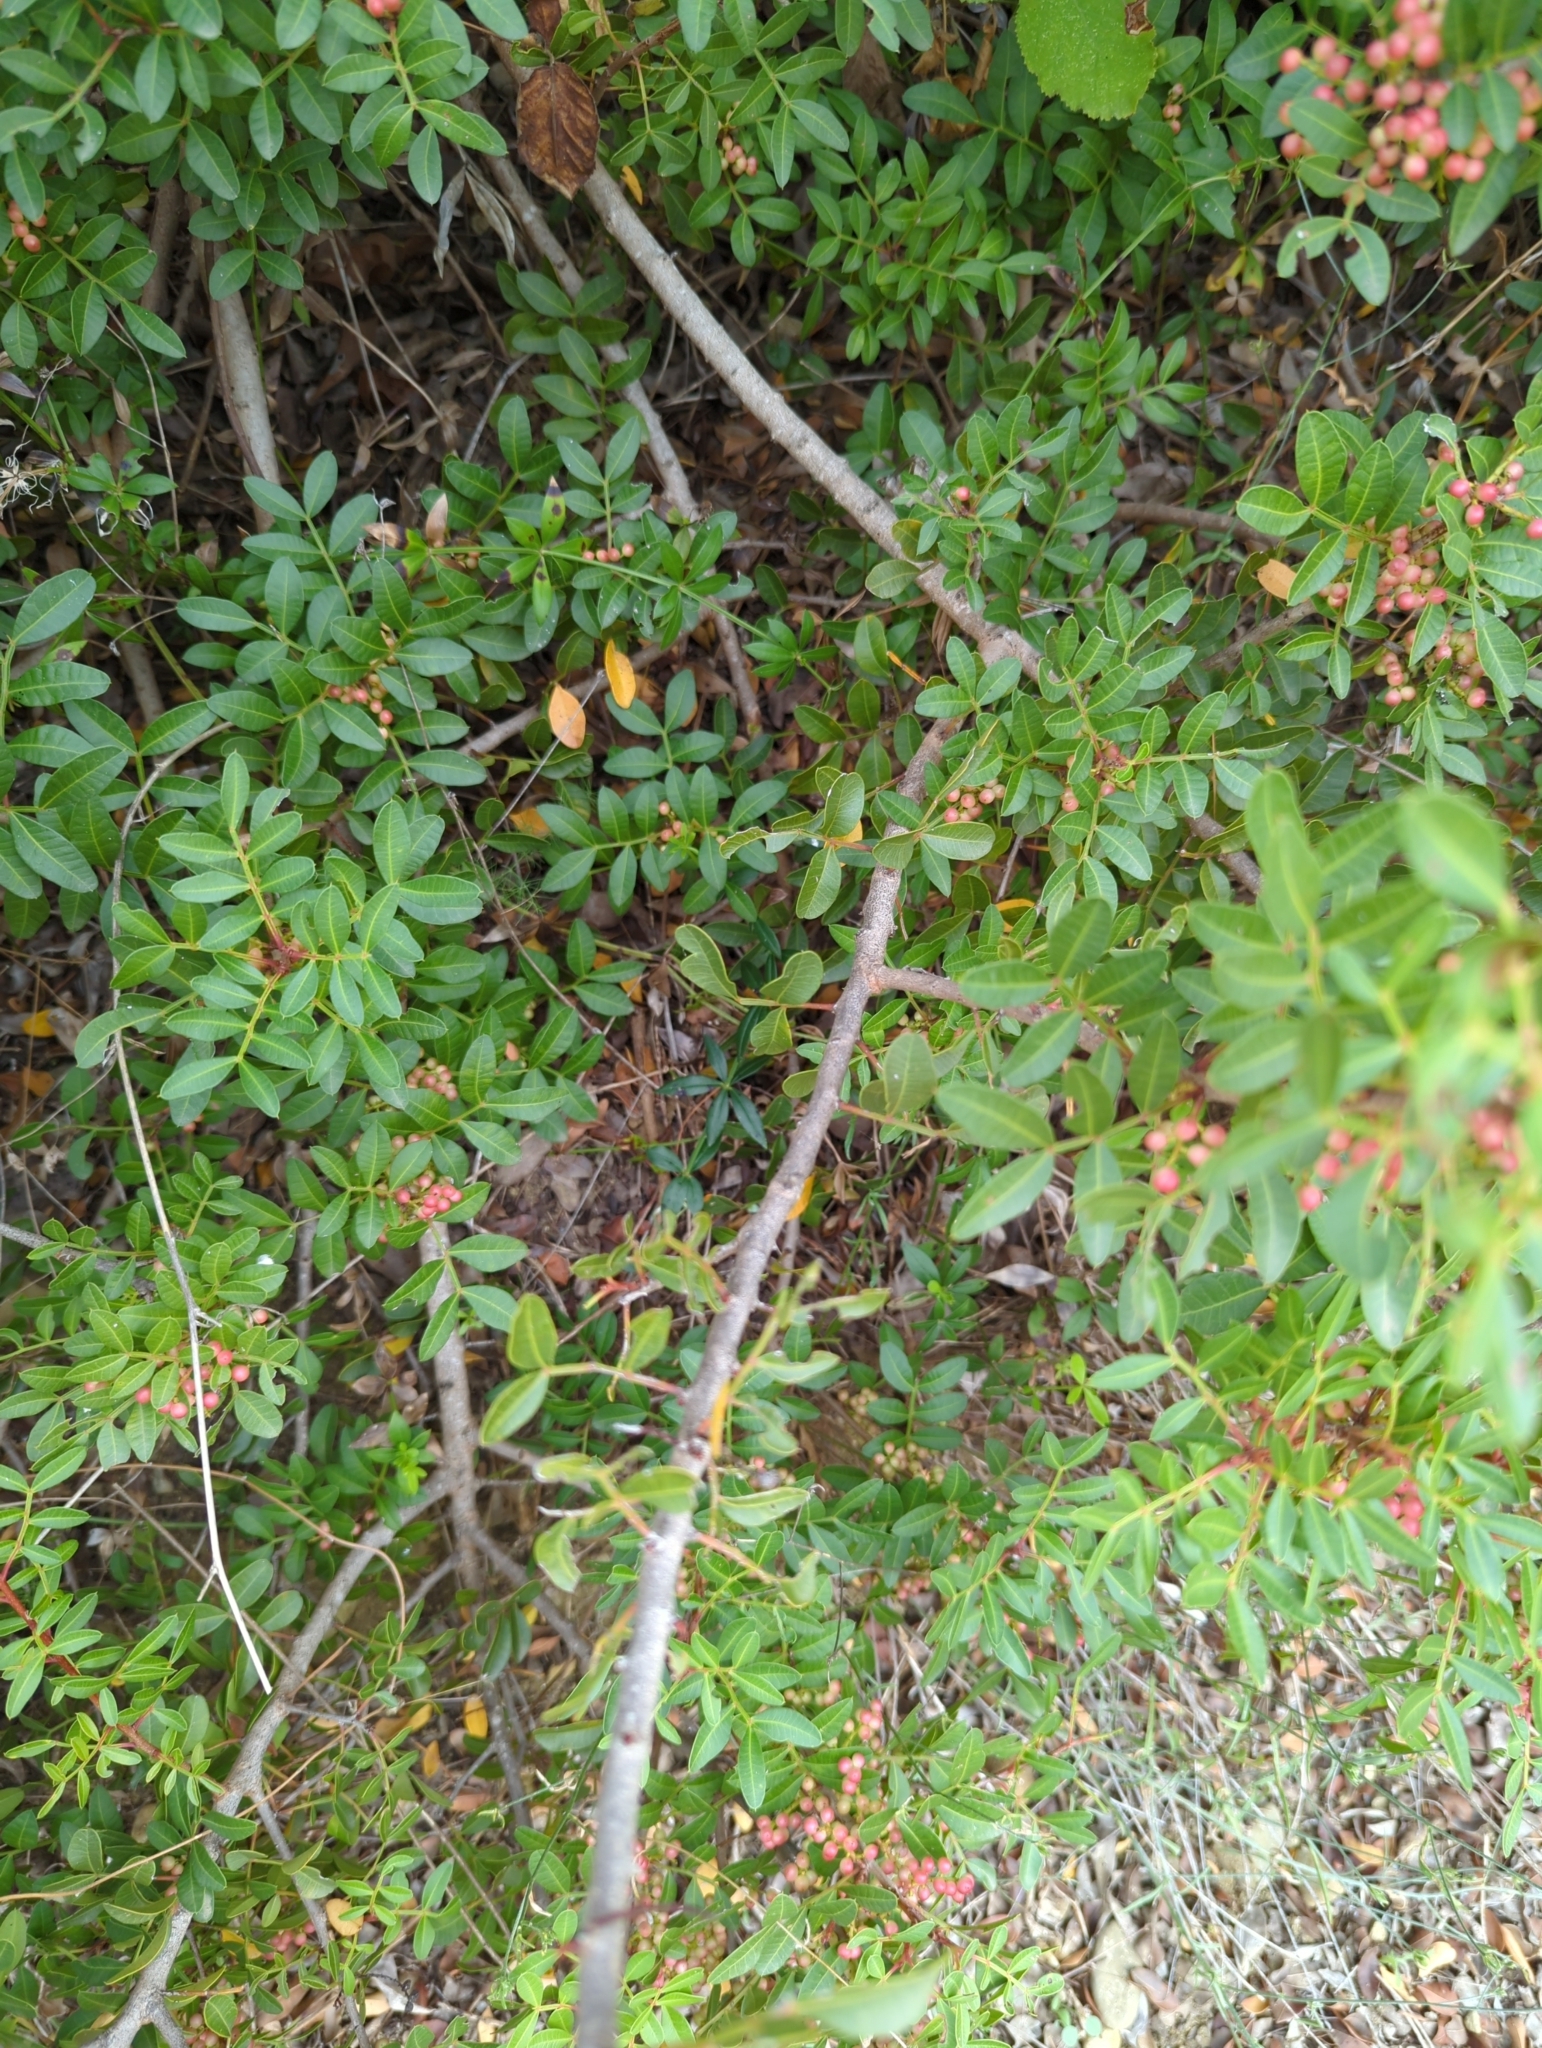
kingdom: Plantae
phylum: Tracheophyta
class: Magnoliopsida
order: Sapindales
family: Anacardiaceae
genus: Pistacia
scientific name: Pistacia lentiscus
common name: Lentisk
